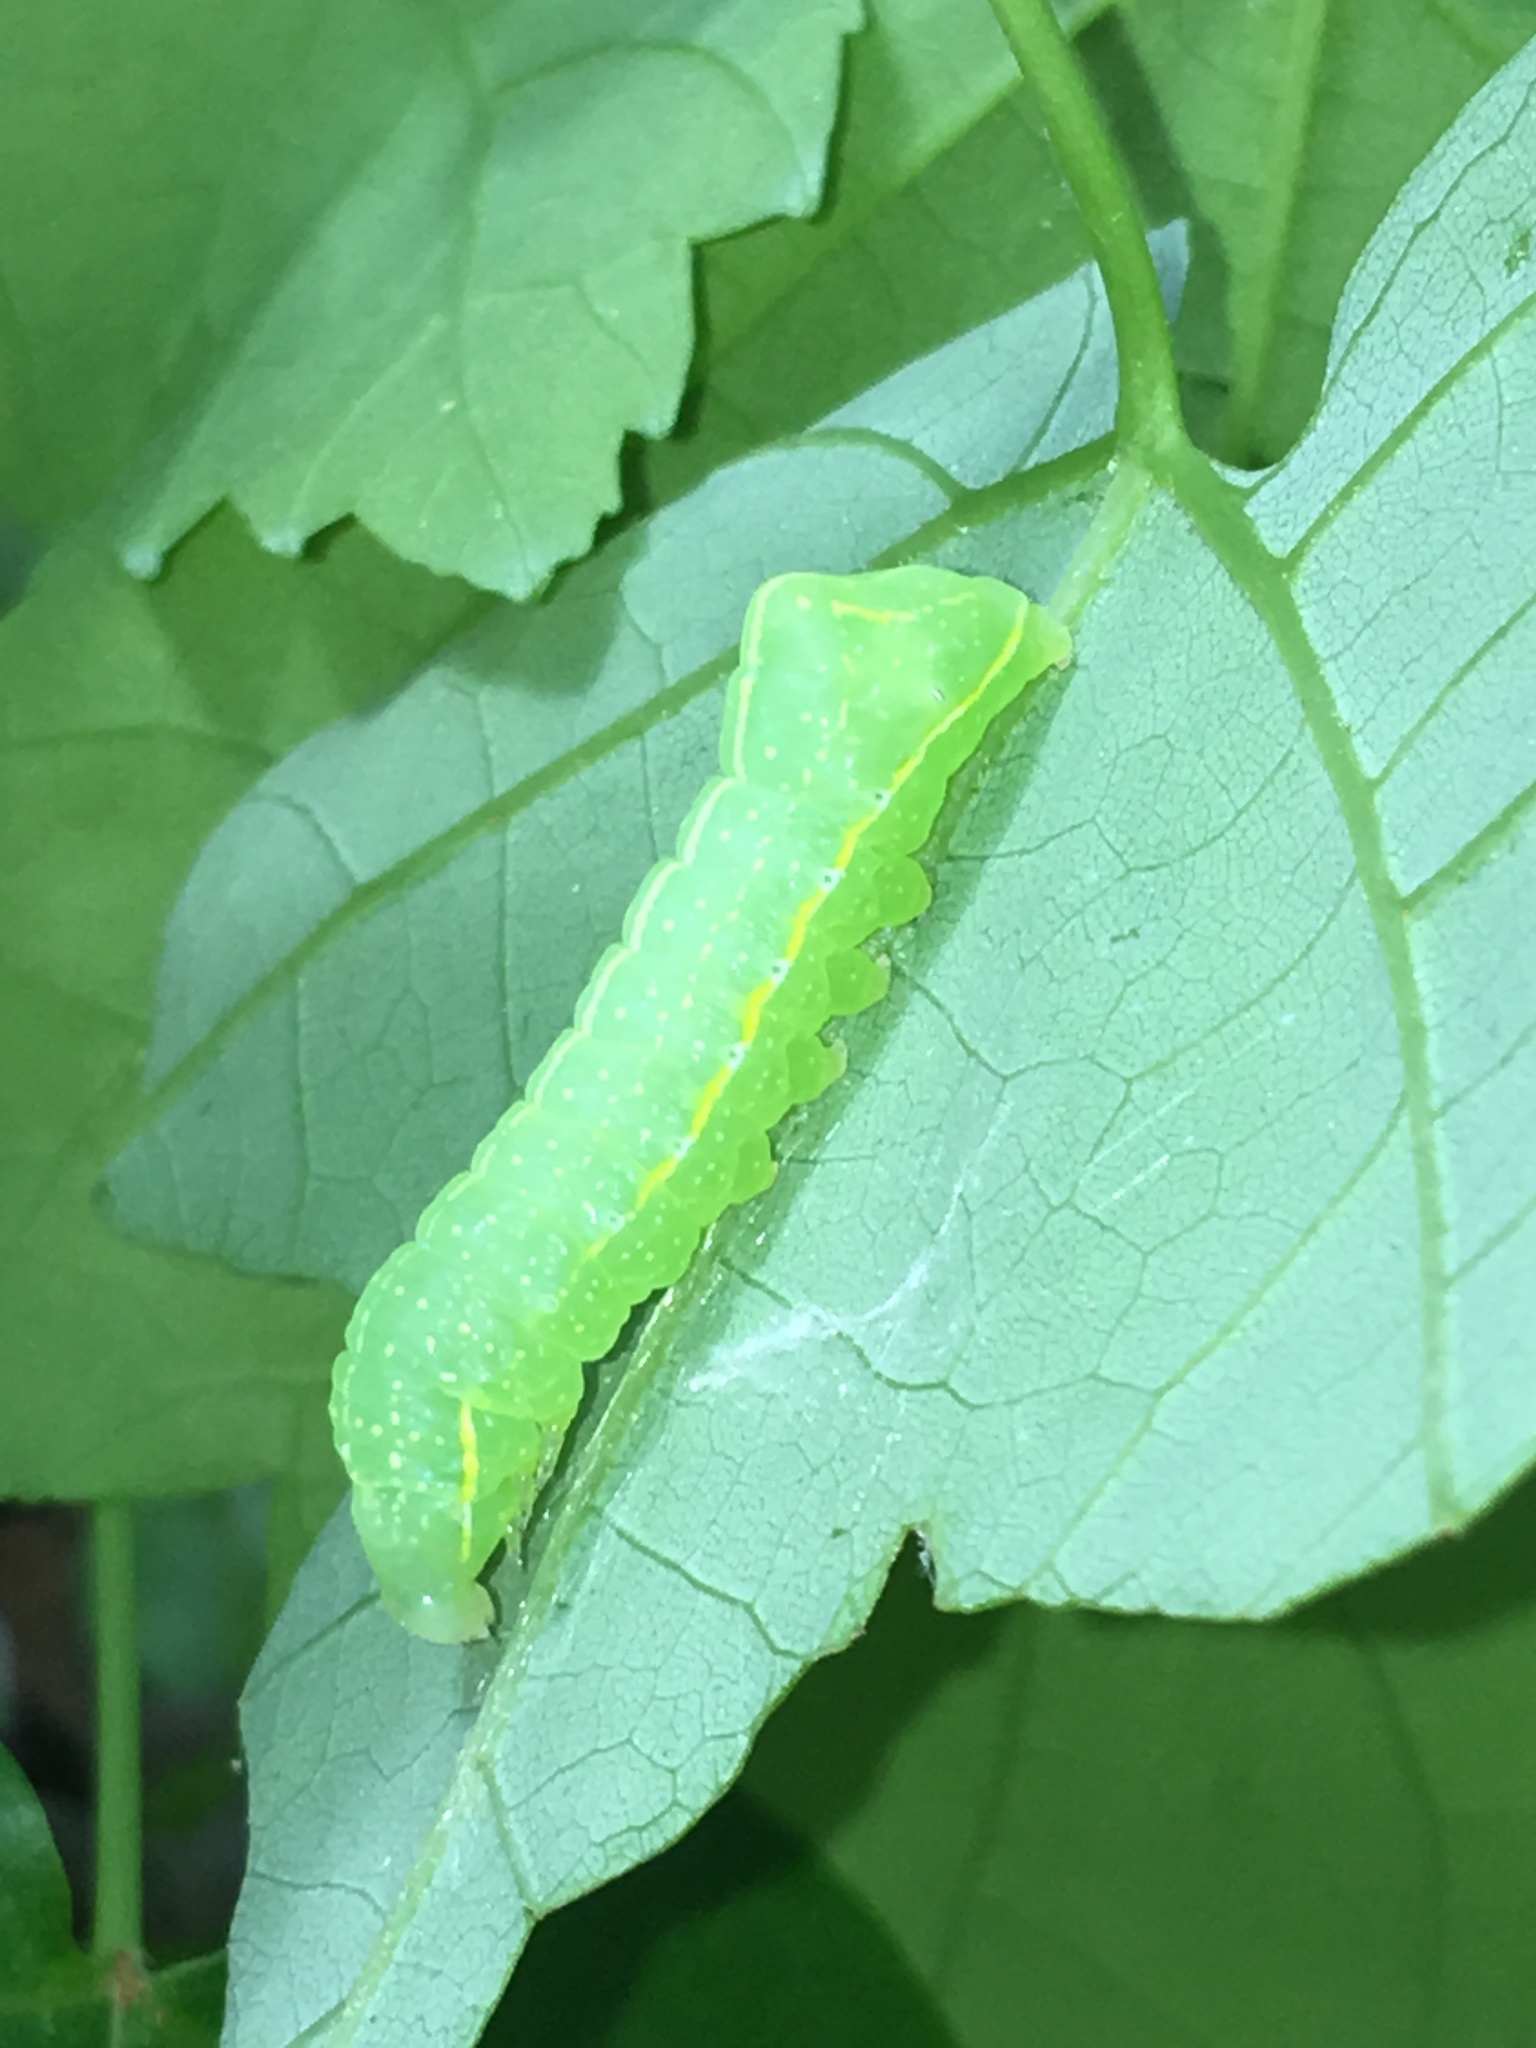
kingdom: Animalia
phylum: Arthropoda
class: Insecta
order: Lepidoptera
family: Noctuidae
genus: Amphipyra
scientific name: Amphipyra pyramidoides
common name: American copper underwing
